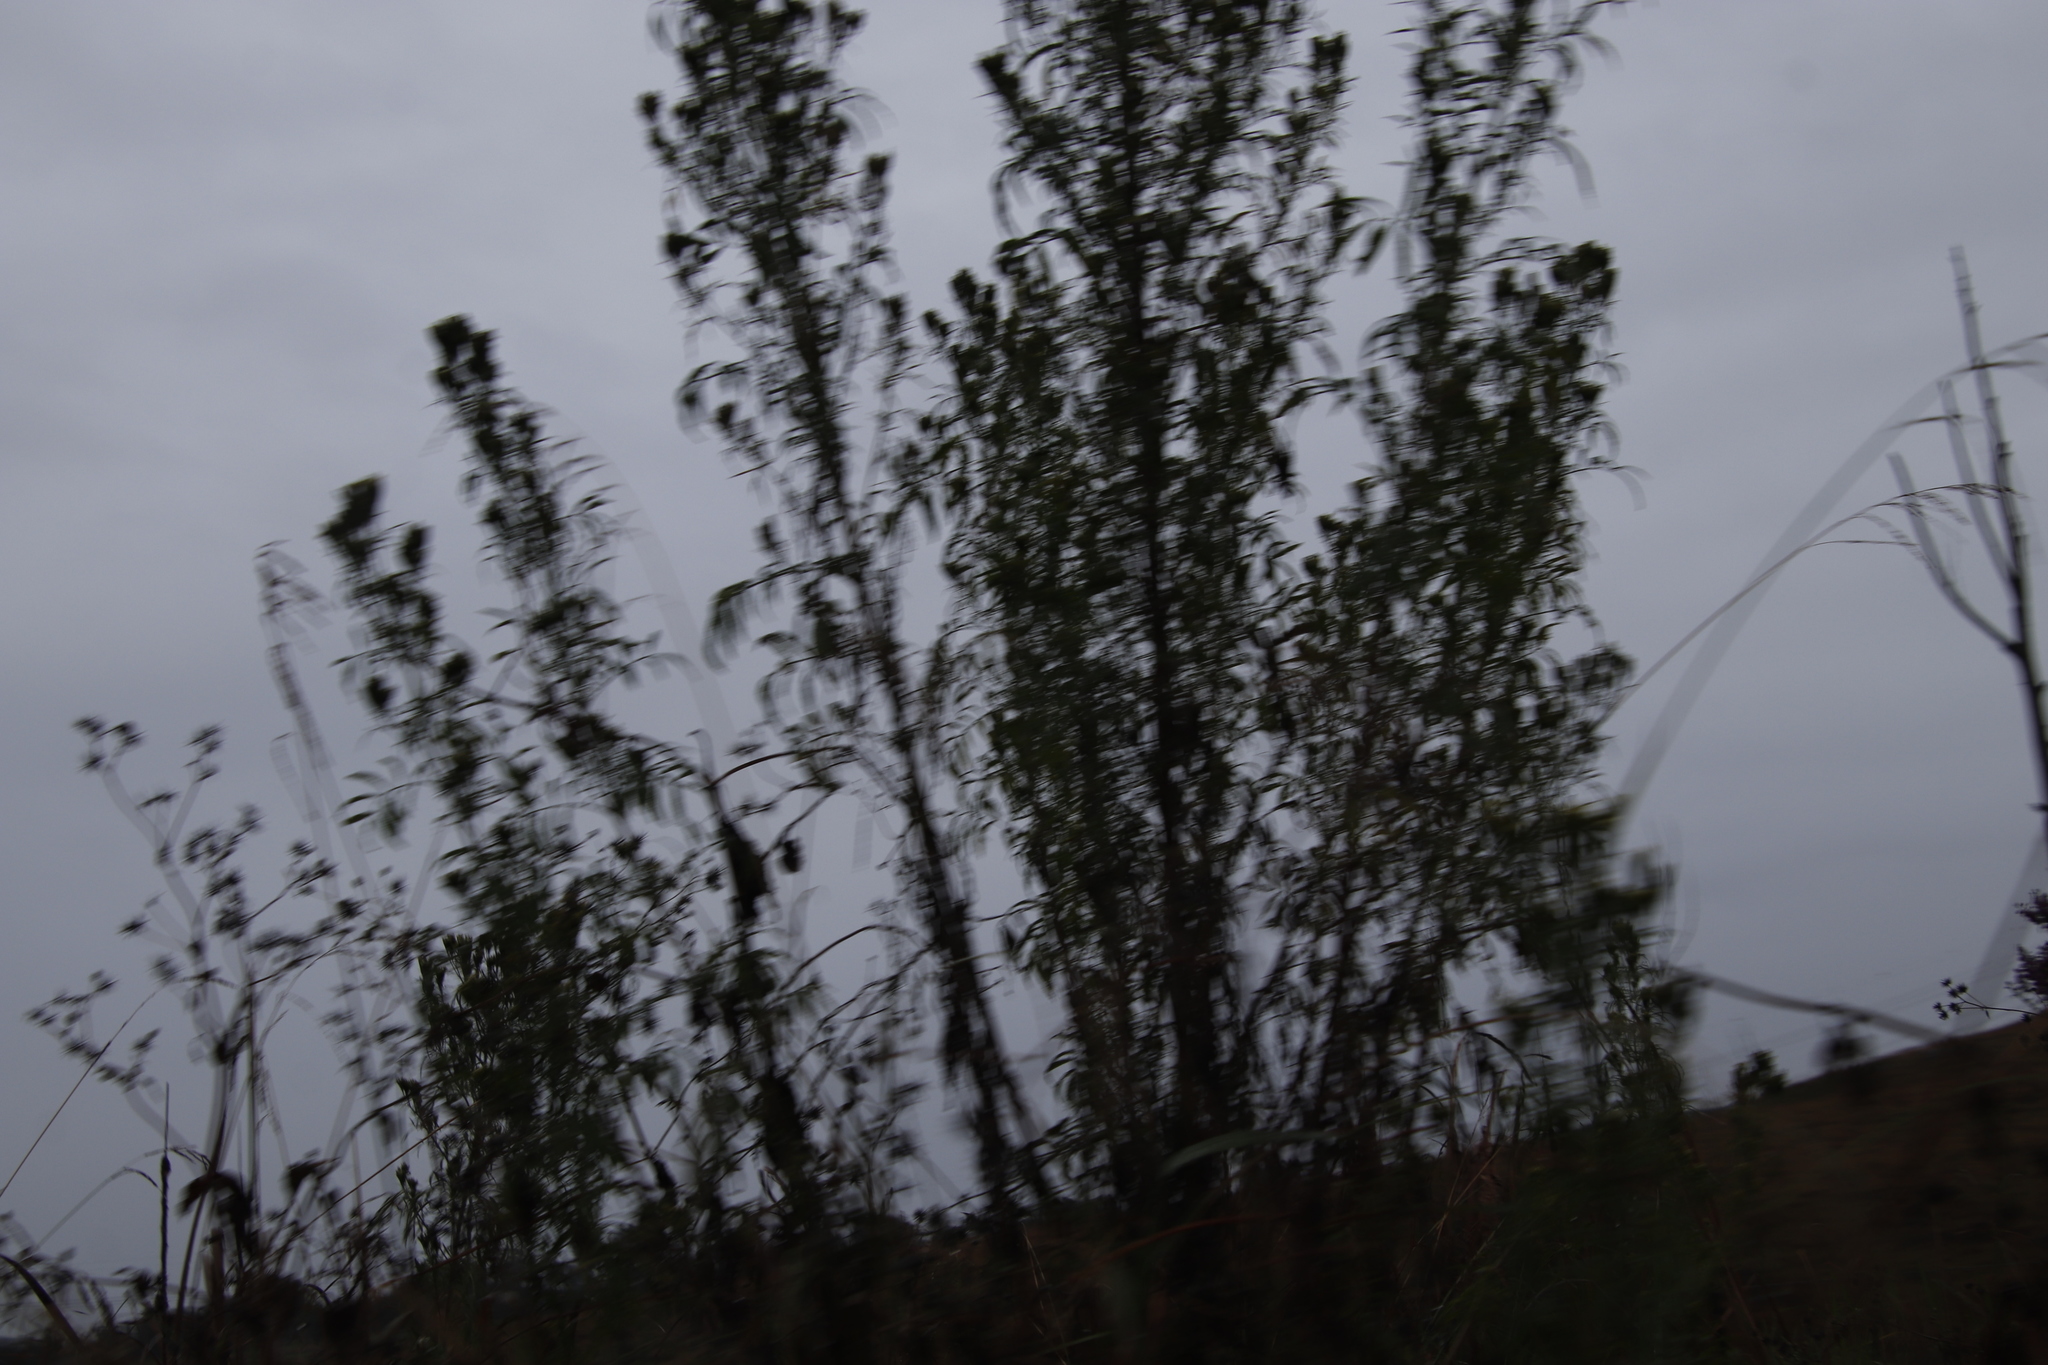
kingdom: Plantae
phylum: Tracheophyta
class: Magnoliopsida
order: Asterales
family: Asteraceae
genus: Tagetes
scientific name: Tagetes minuta
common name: Muster john henry
